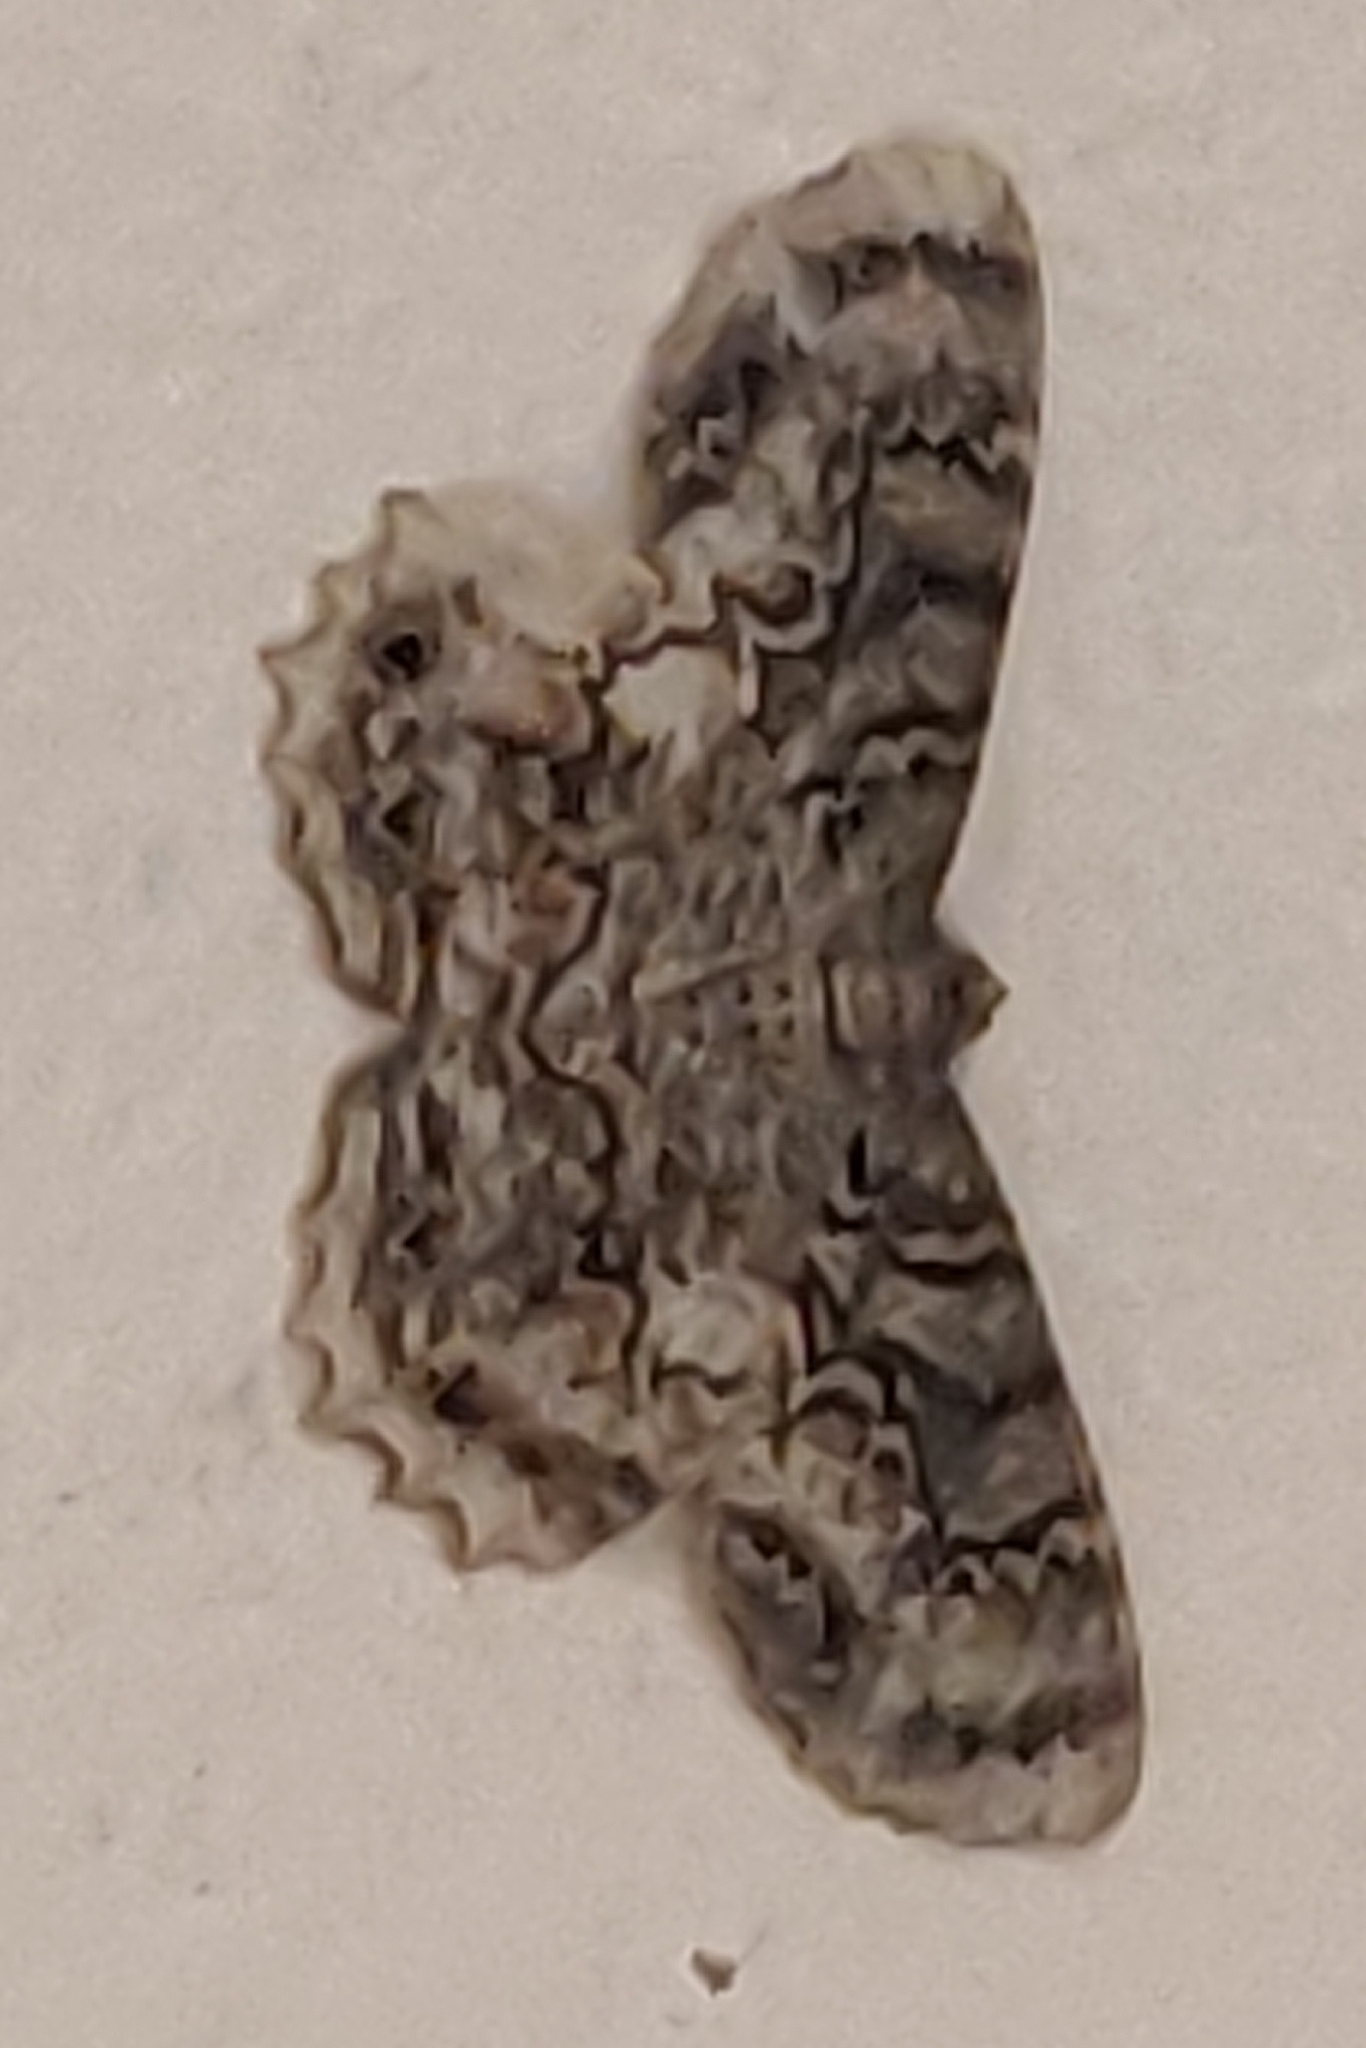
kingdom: Animalia
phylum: Arthropoda
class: Insecta
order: Lepidoptera
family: Geometridae
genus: Epimecis
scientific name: Epimecis hortaria
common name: Tulip-tree beauty
